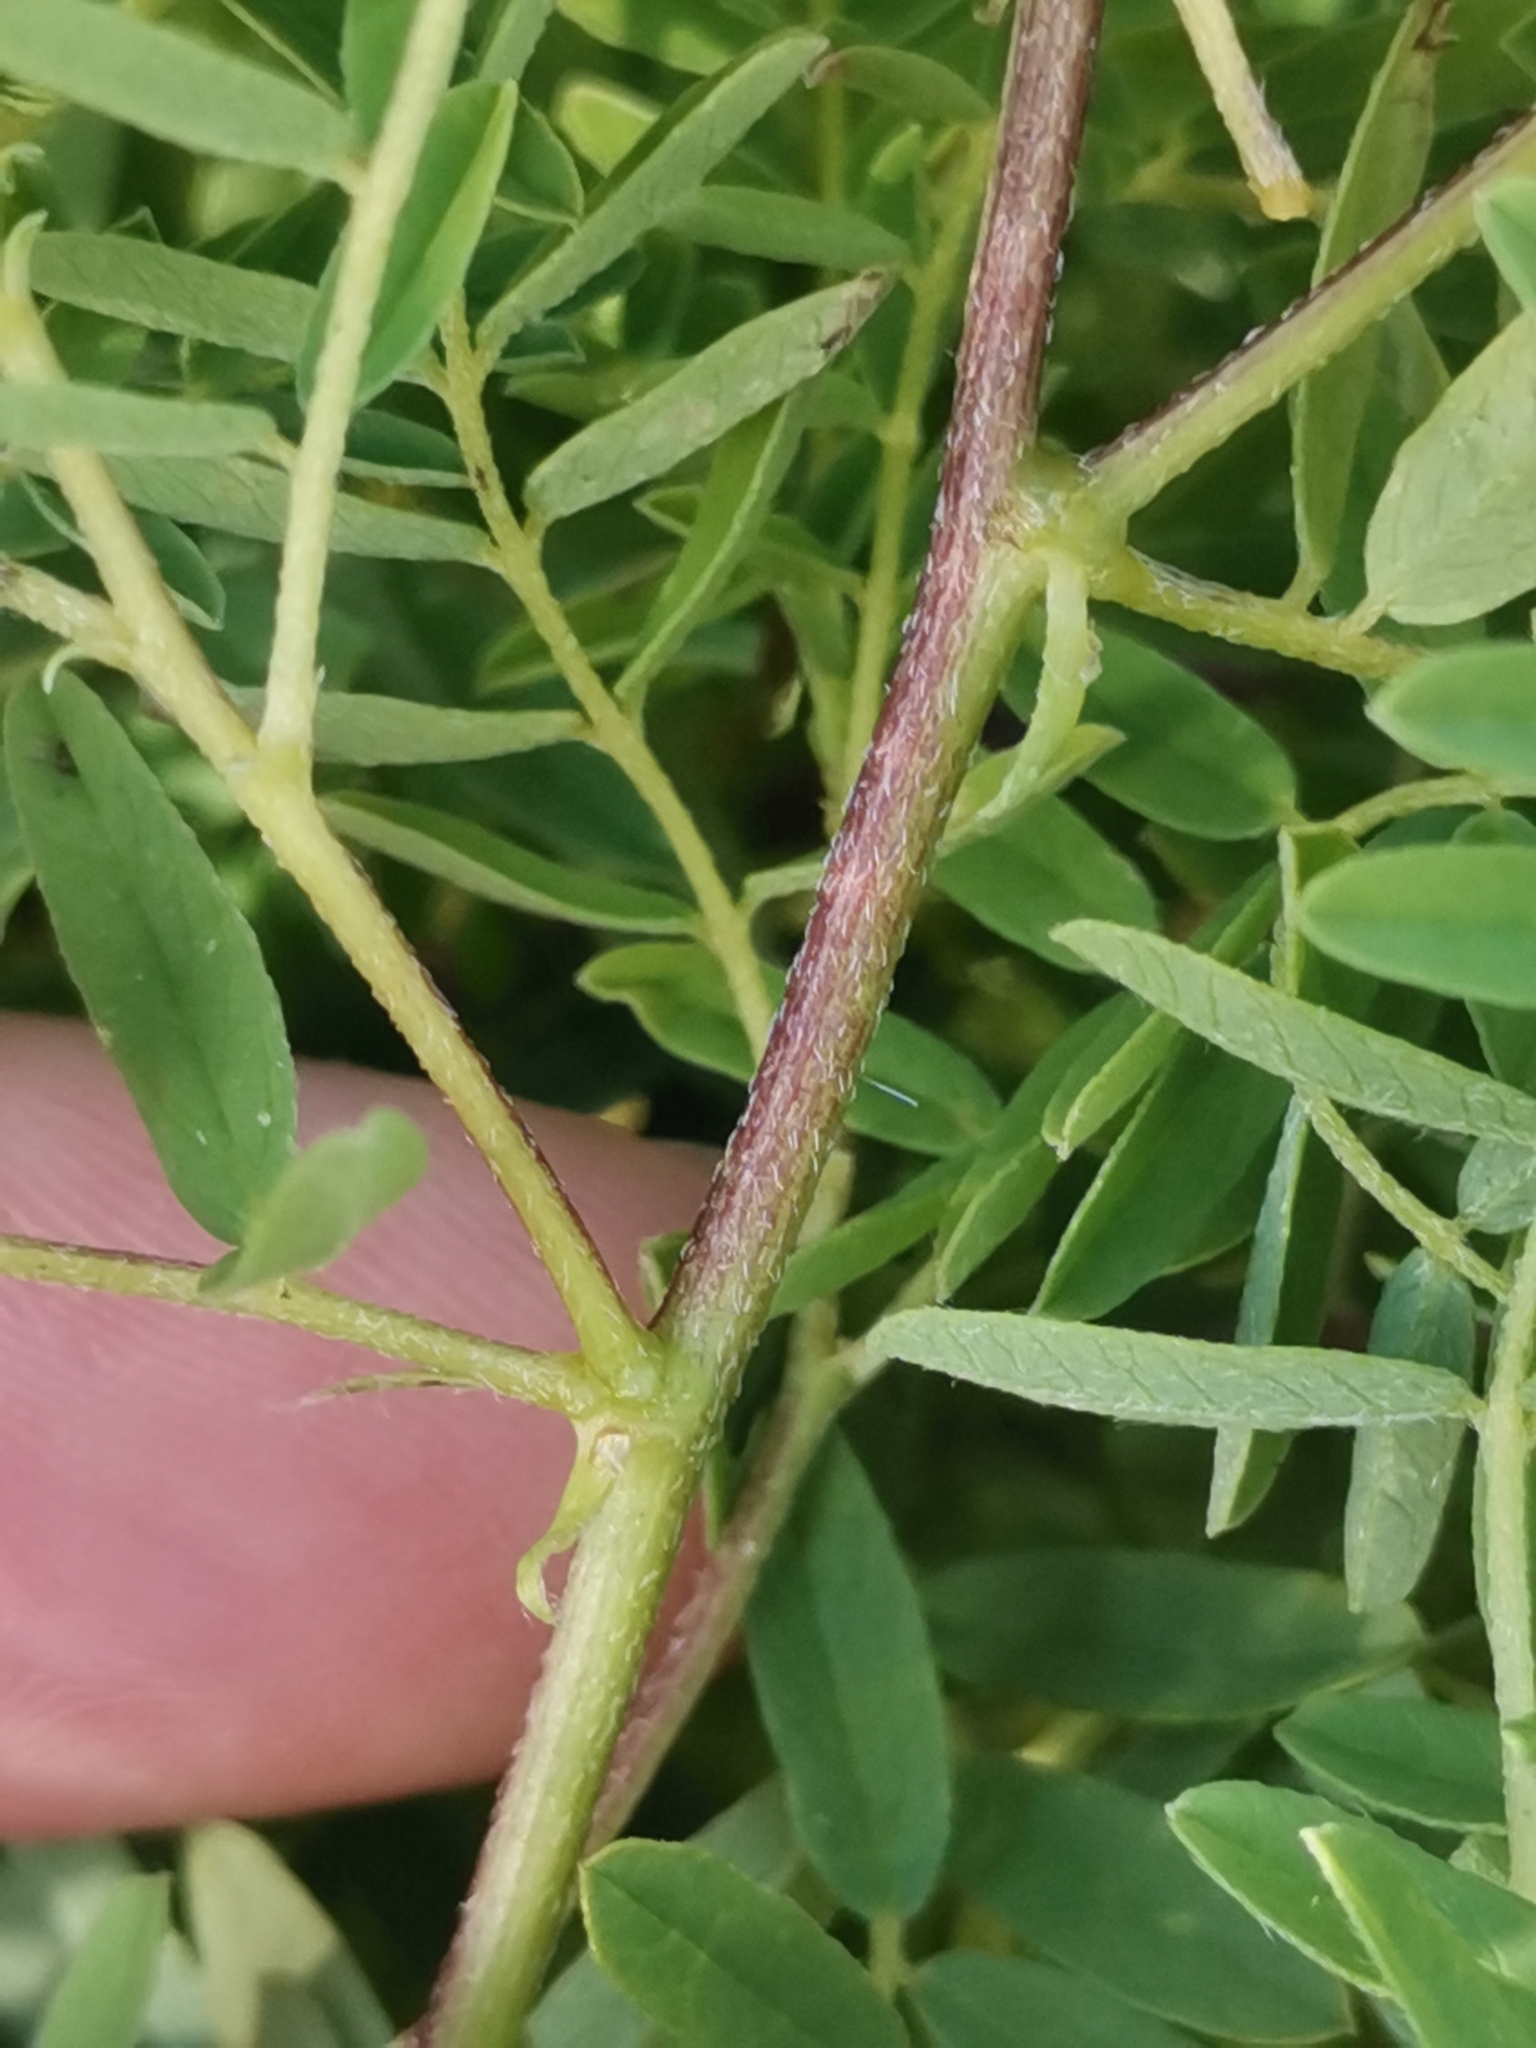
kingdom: Plantae
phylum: Tracheophyta
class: Magnoliopsida
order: Fabales
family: Fabaceae
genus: Astragalus
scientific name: Astragalus penduliflorus
